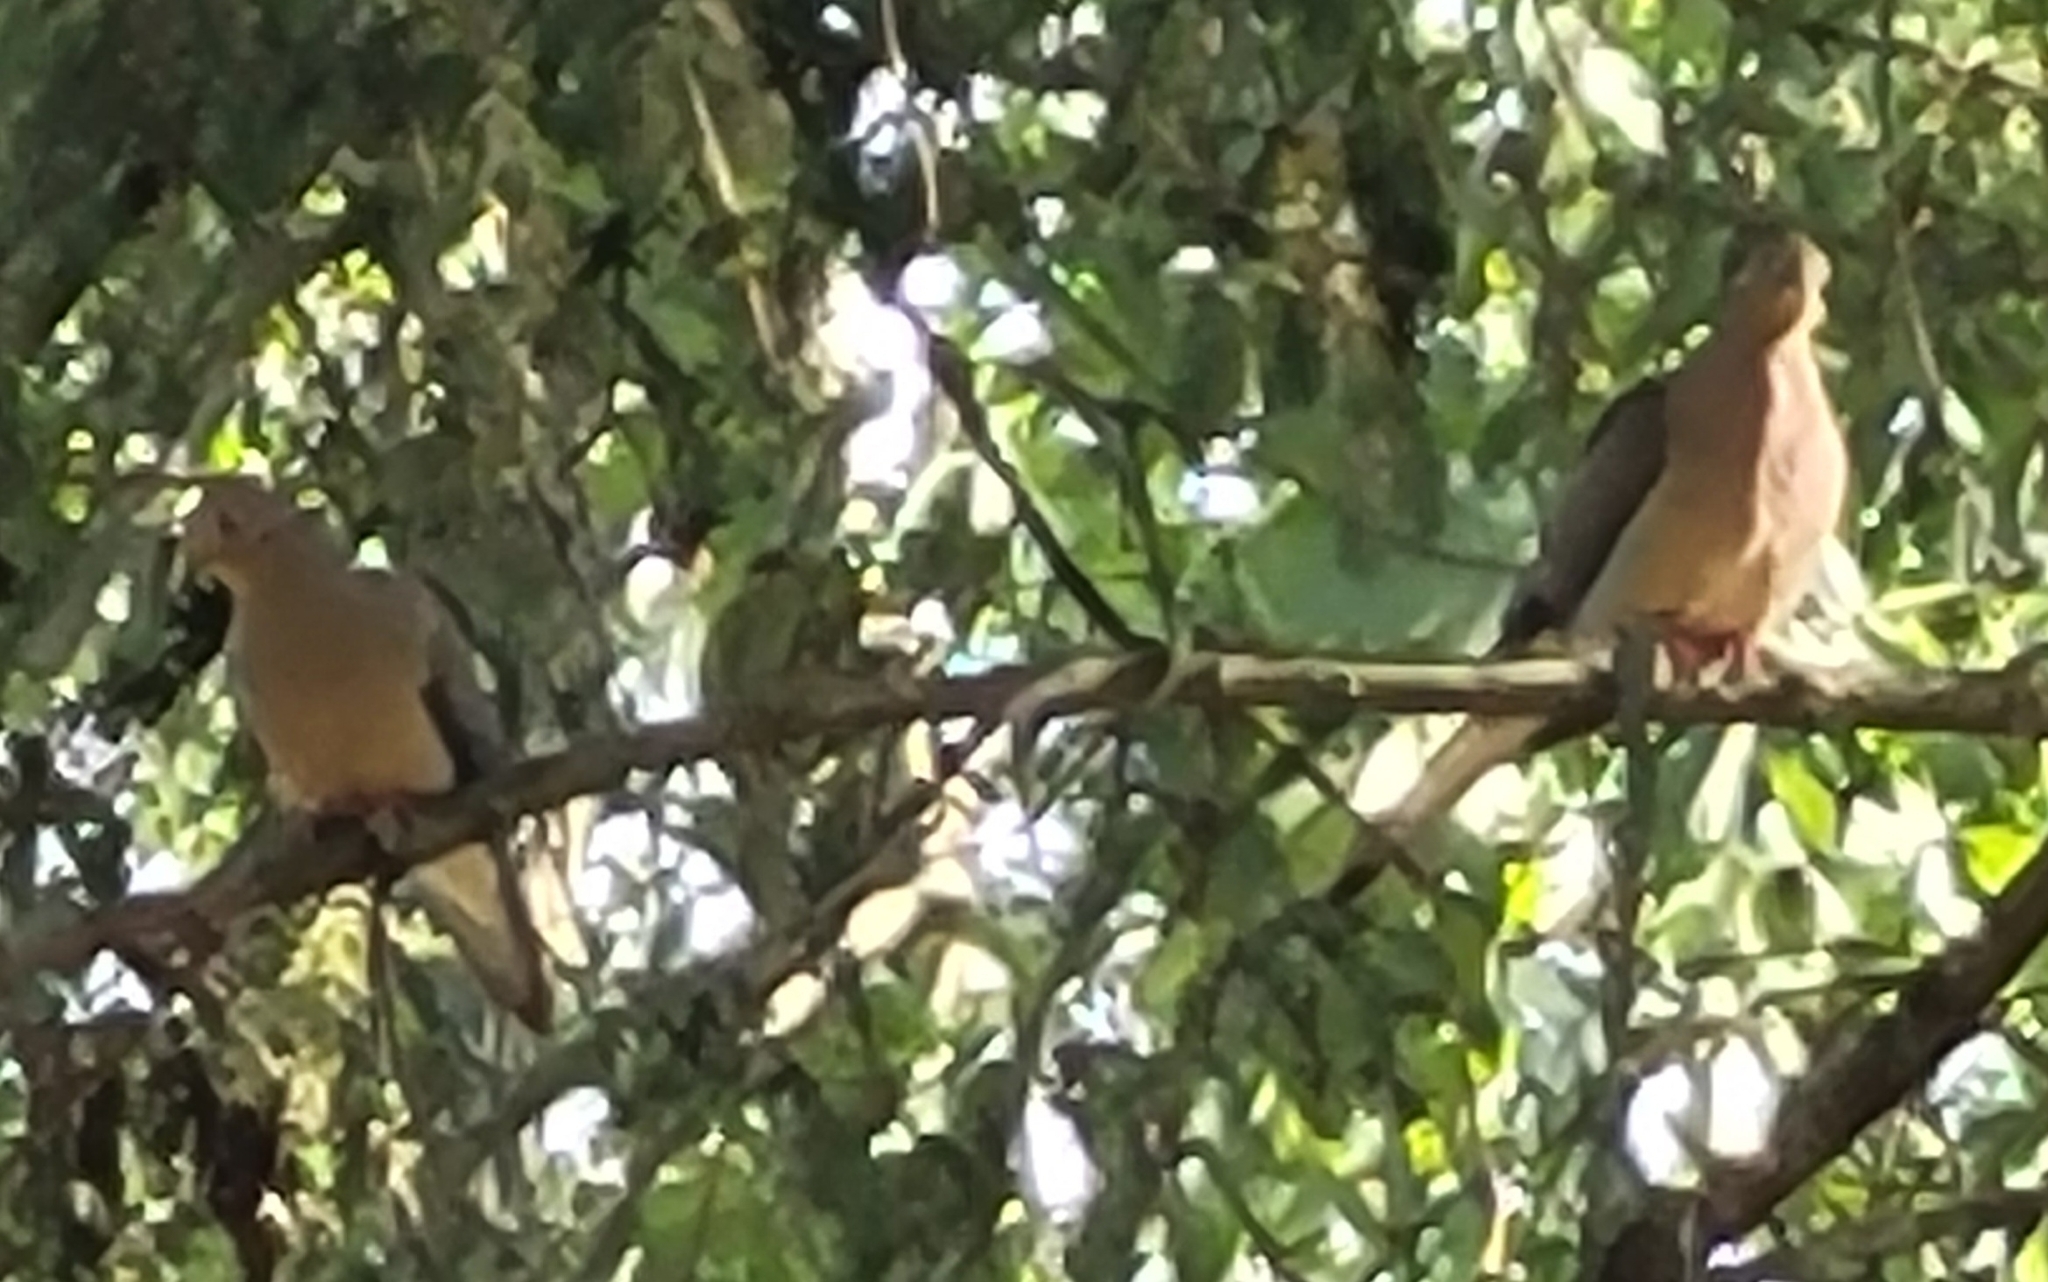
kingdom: Animalia
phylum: Chordata
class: Aves
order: Columbiformes
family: Columbidae
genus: Zenaida
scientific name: Zenaida macroura
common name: Mourning dove
